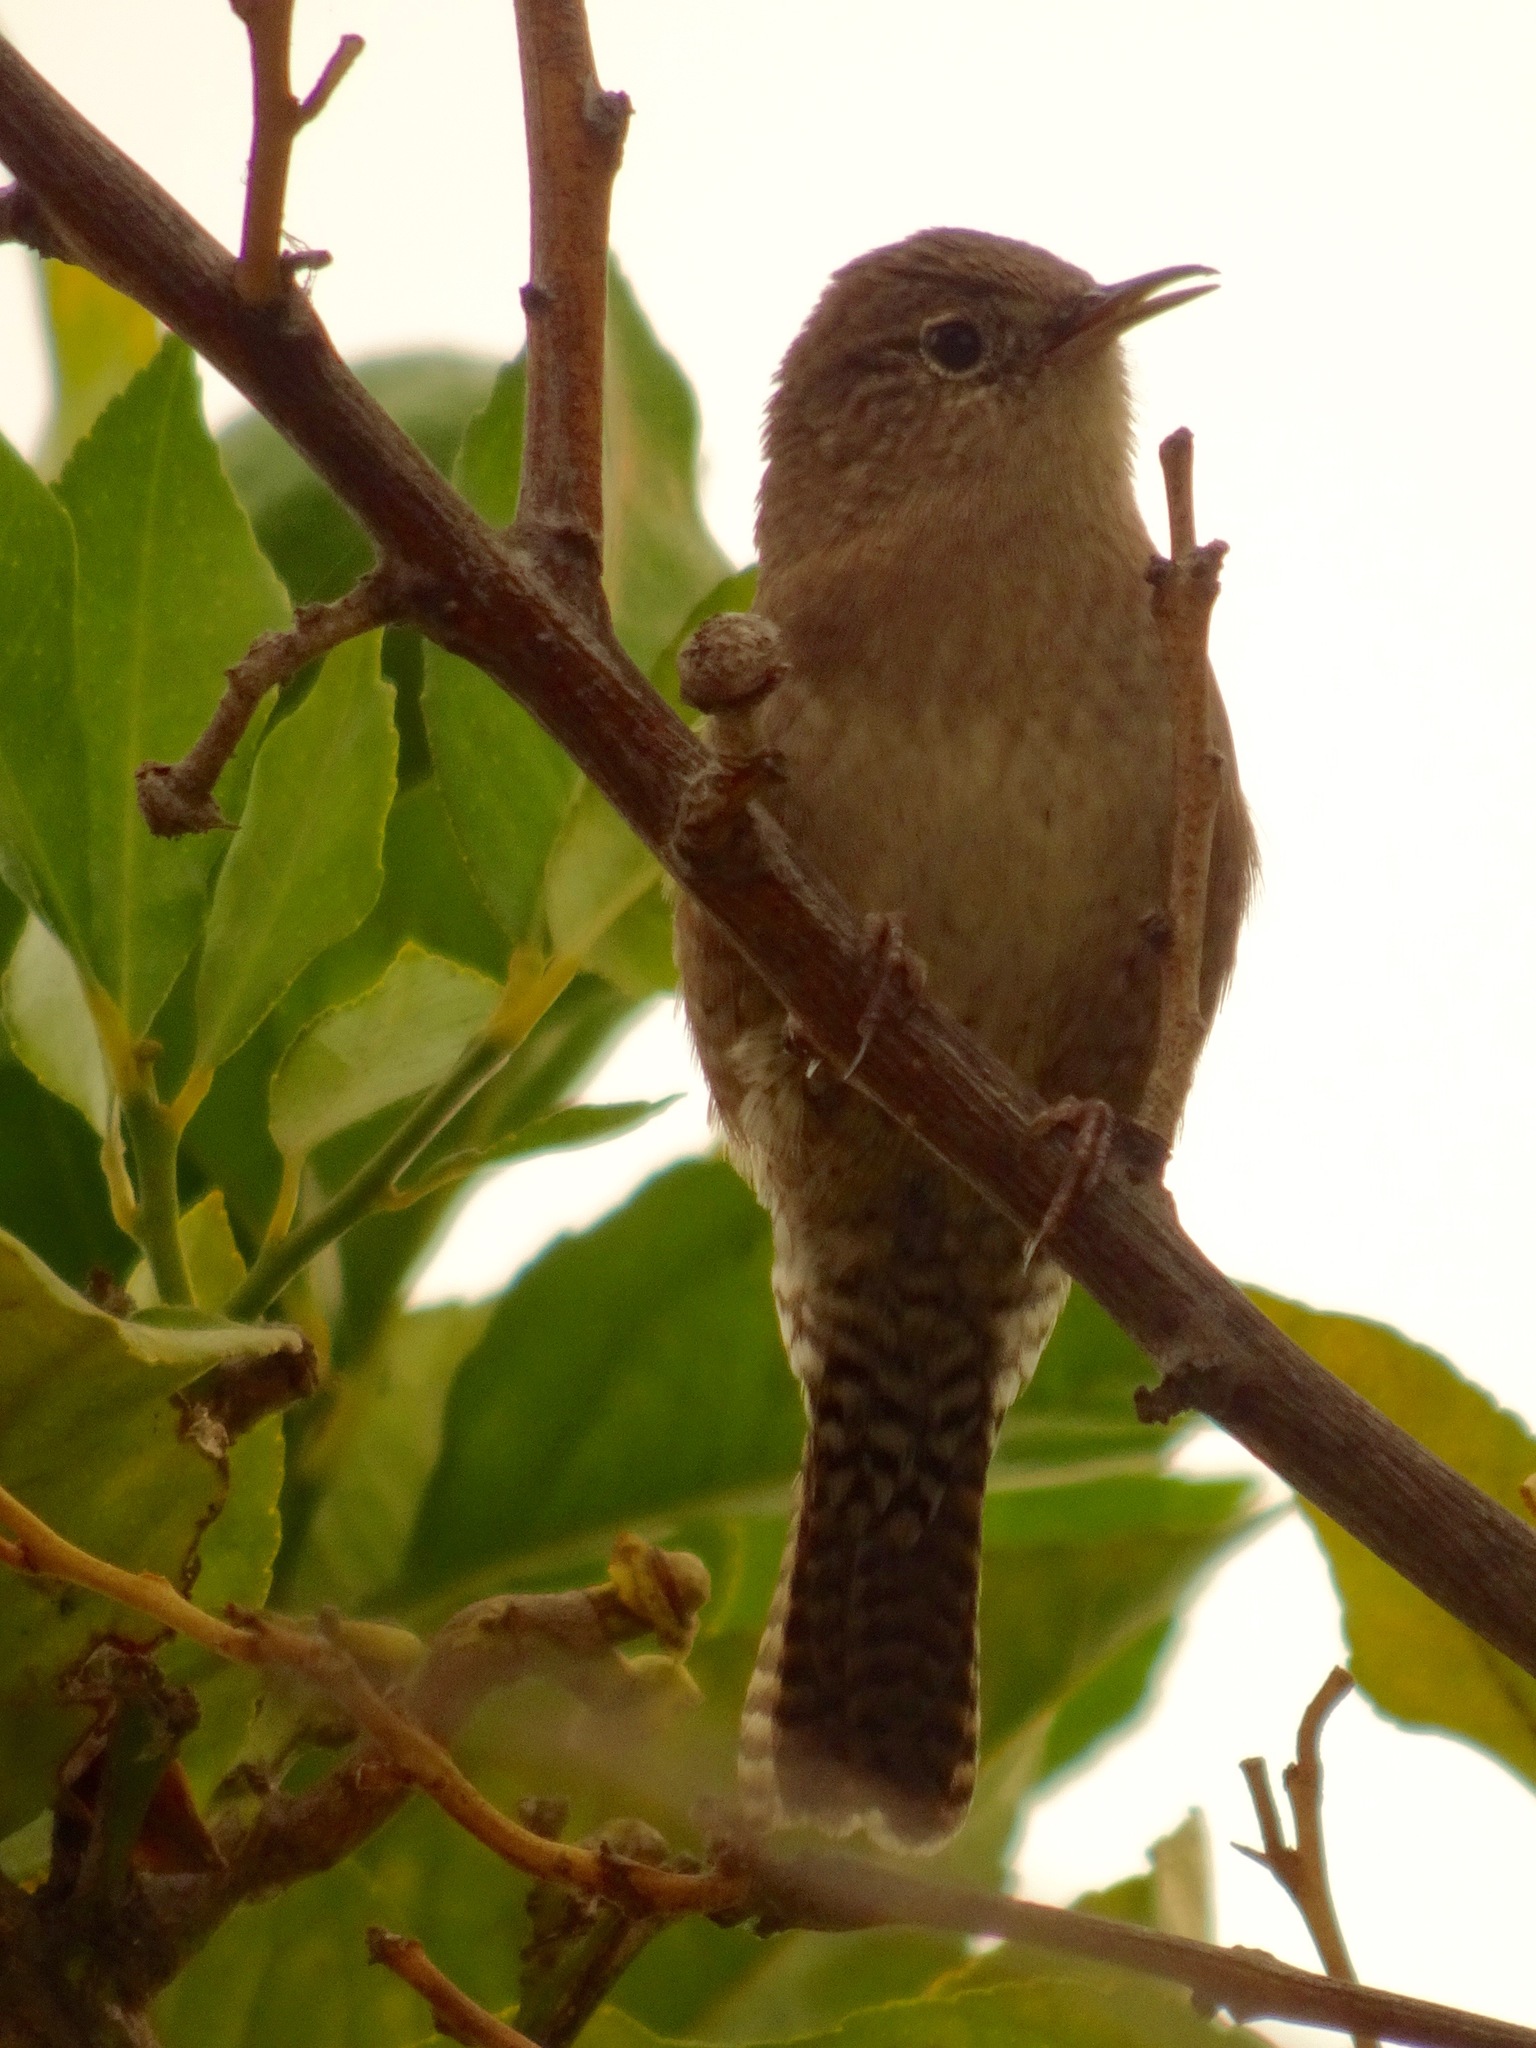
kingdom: Animalia
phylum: Chordata
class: Aves
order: Passeriformes
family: Troglodytidae
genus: Troglodytes
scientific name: Troglodytes aedon
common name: House wren
